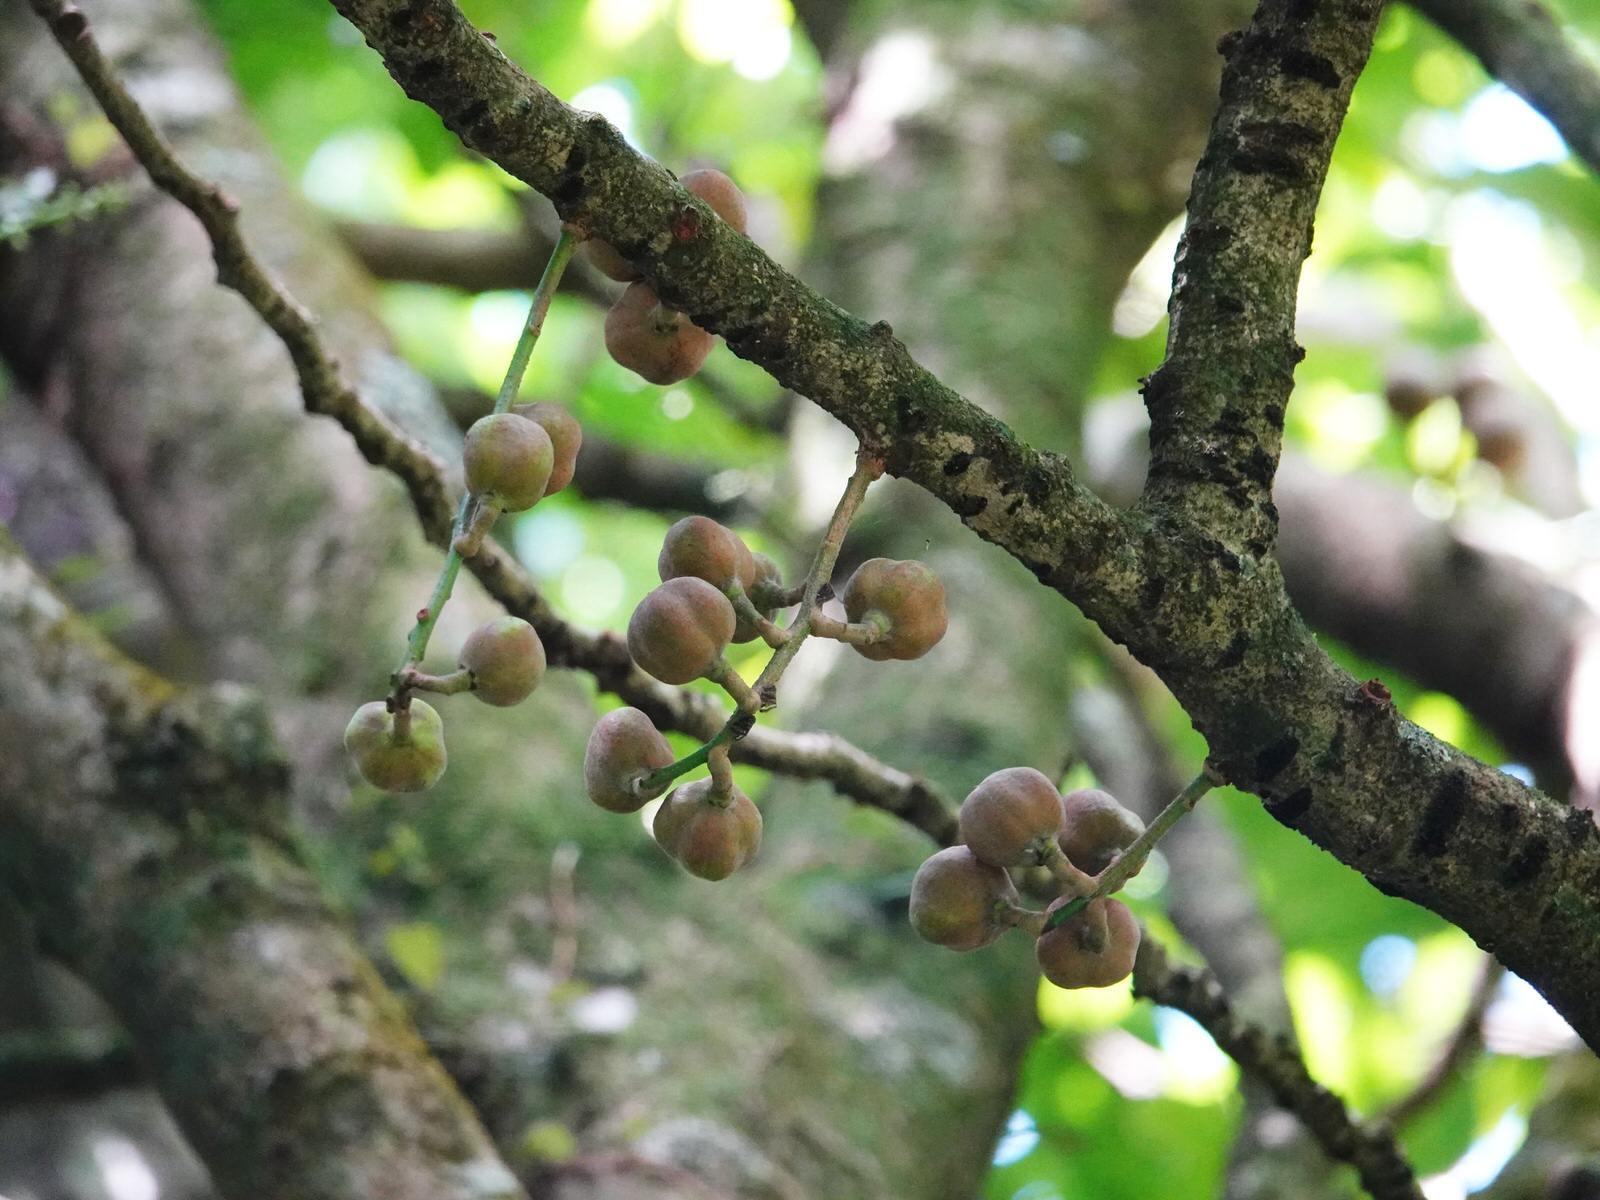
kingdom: Plantae
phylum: Tracheophyta
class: Magnoliopsida
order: Sapindales
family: Meliaceae
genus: Didymocheton
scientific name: Didymocheton spectabilis
